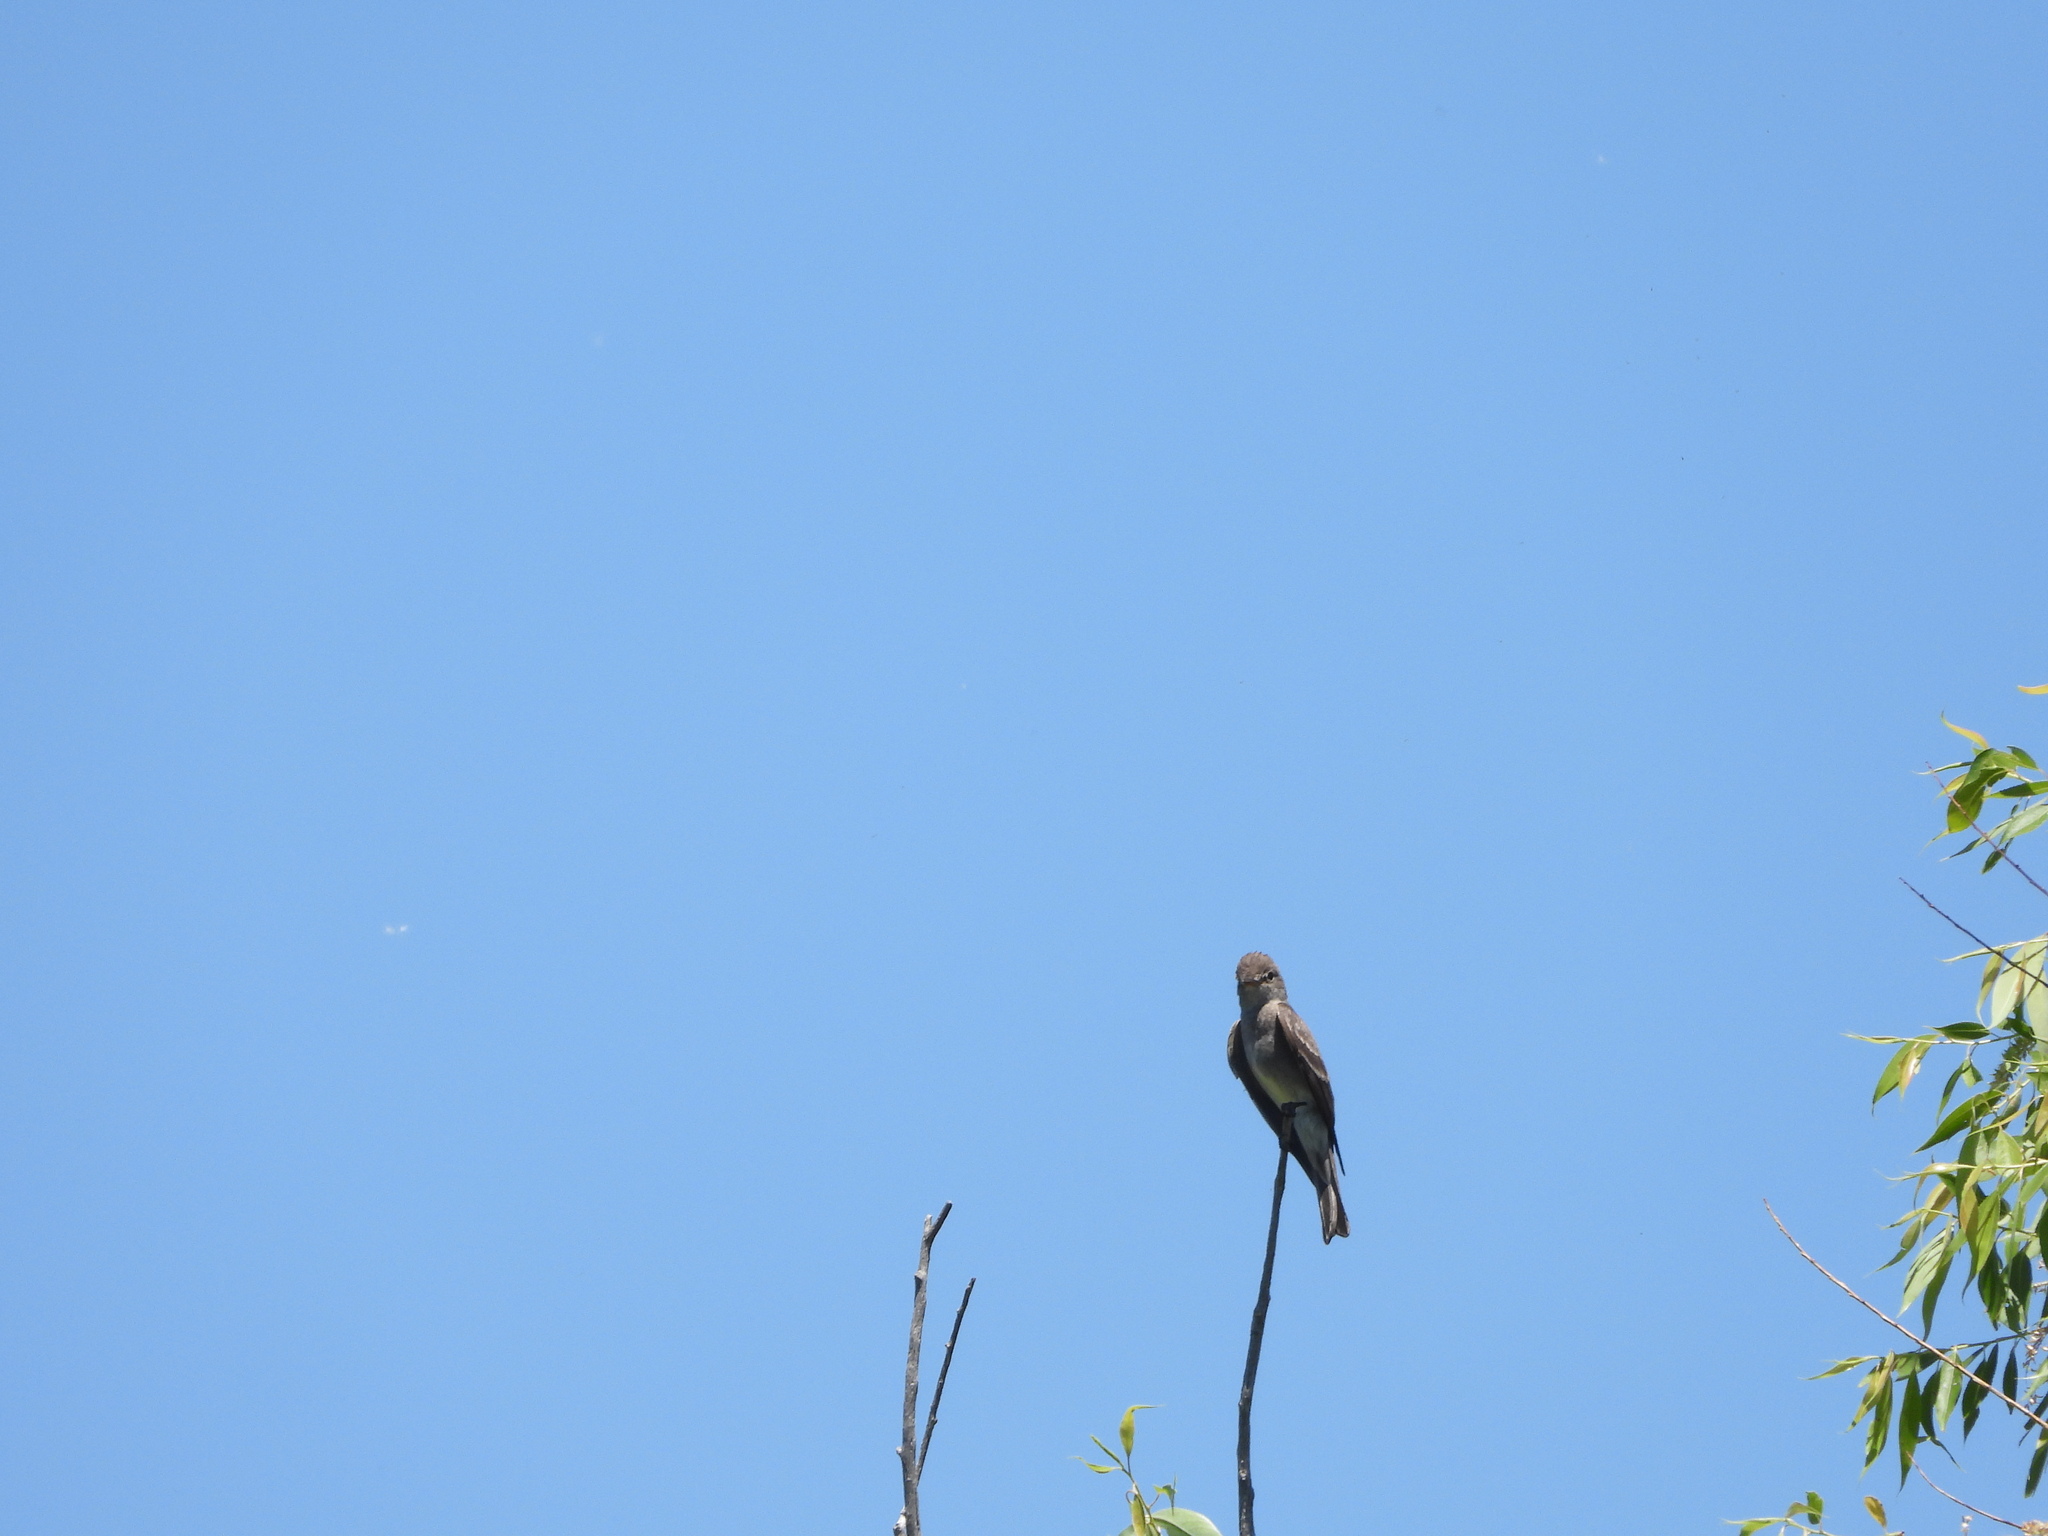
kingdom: Animalia
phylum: Chordata
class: Aves
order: Passeriformes
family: Tyrannidae
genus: Contopus
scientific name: Contopus sordidulus
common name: Western wood-pewee
